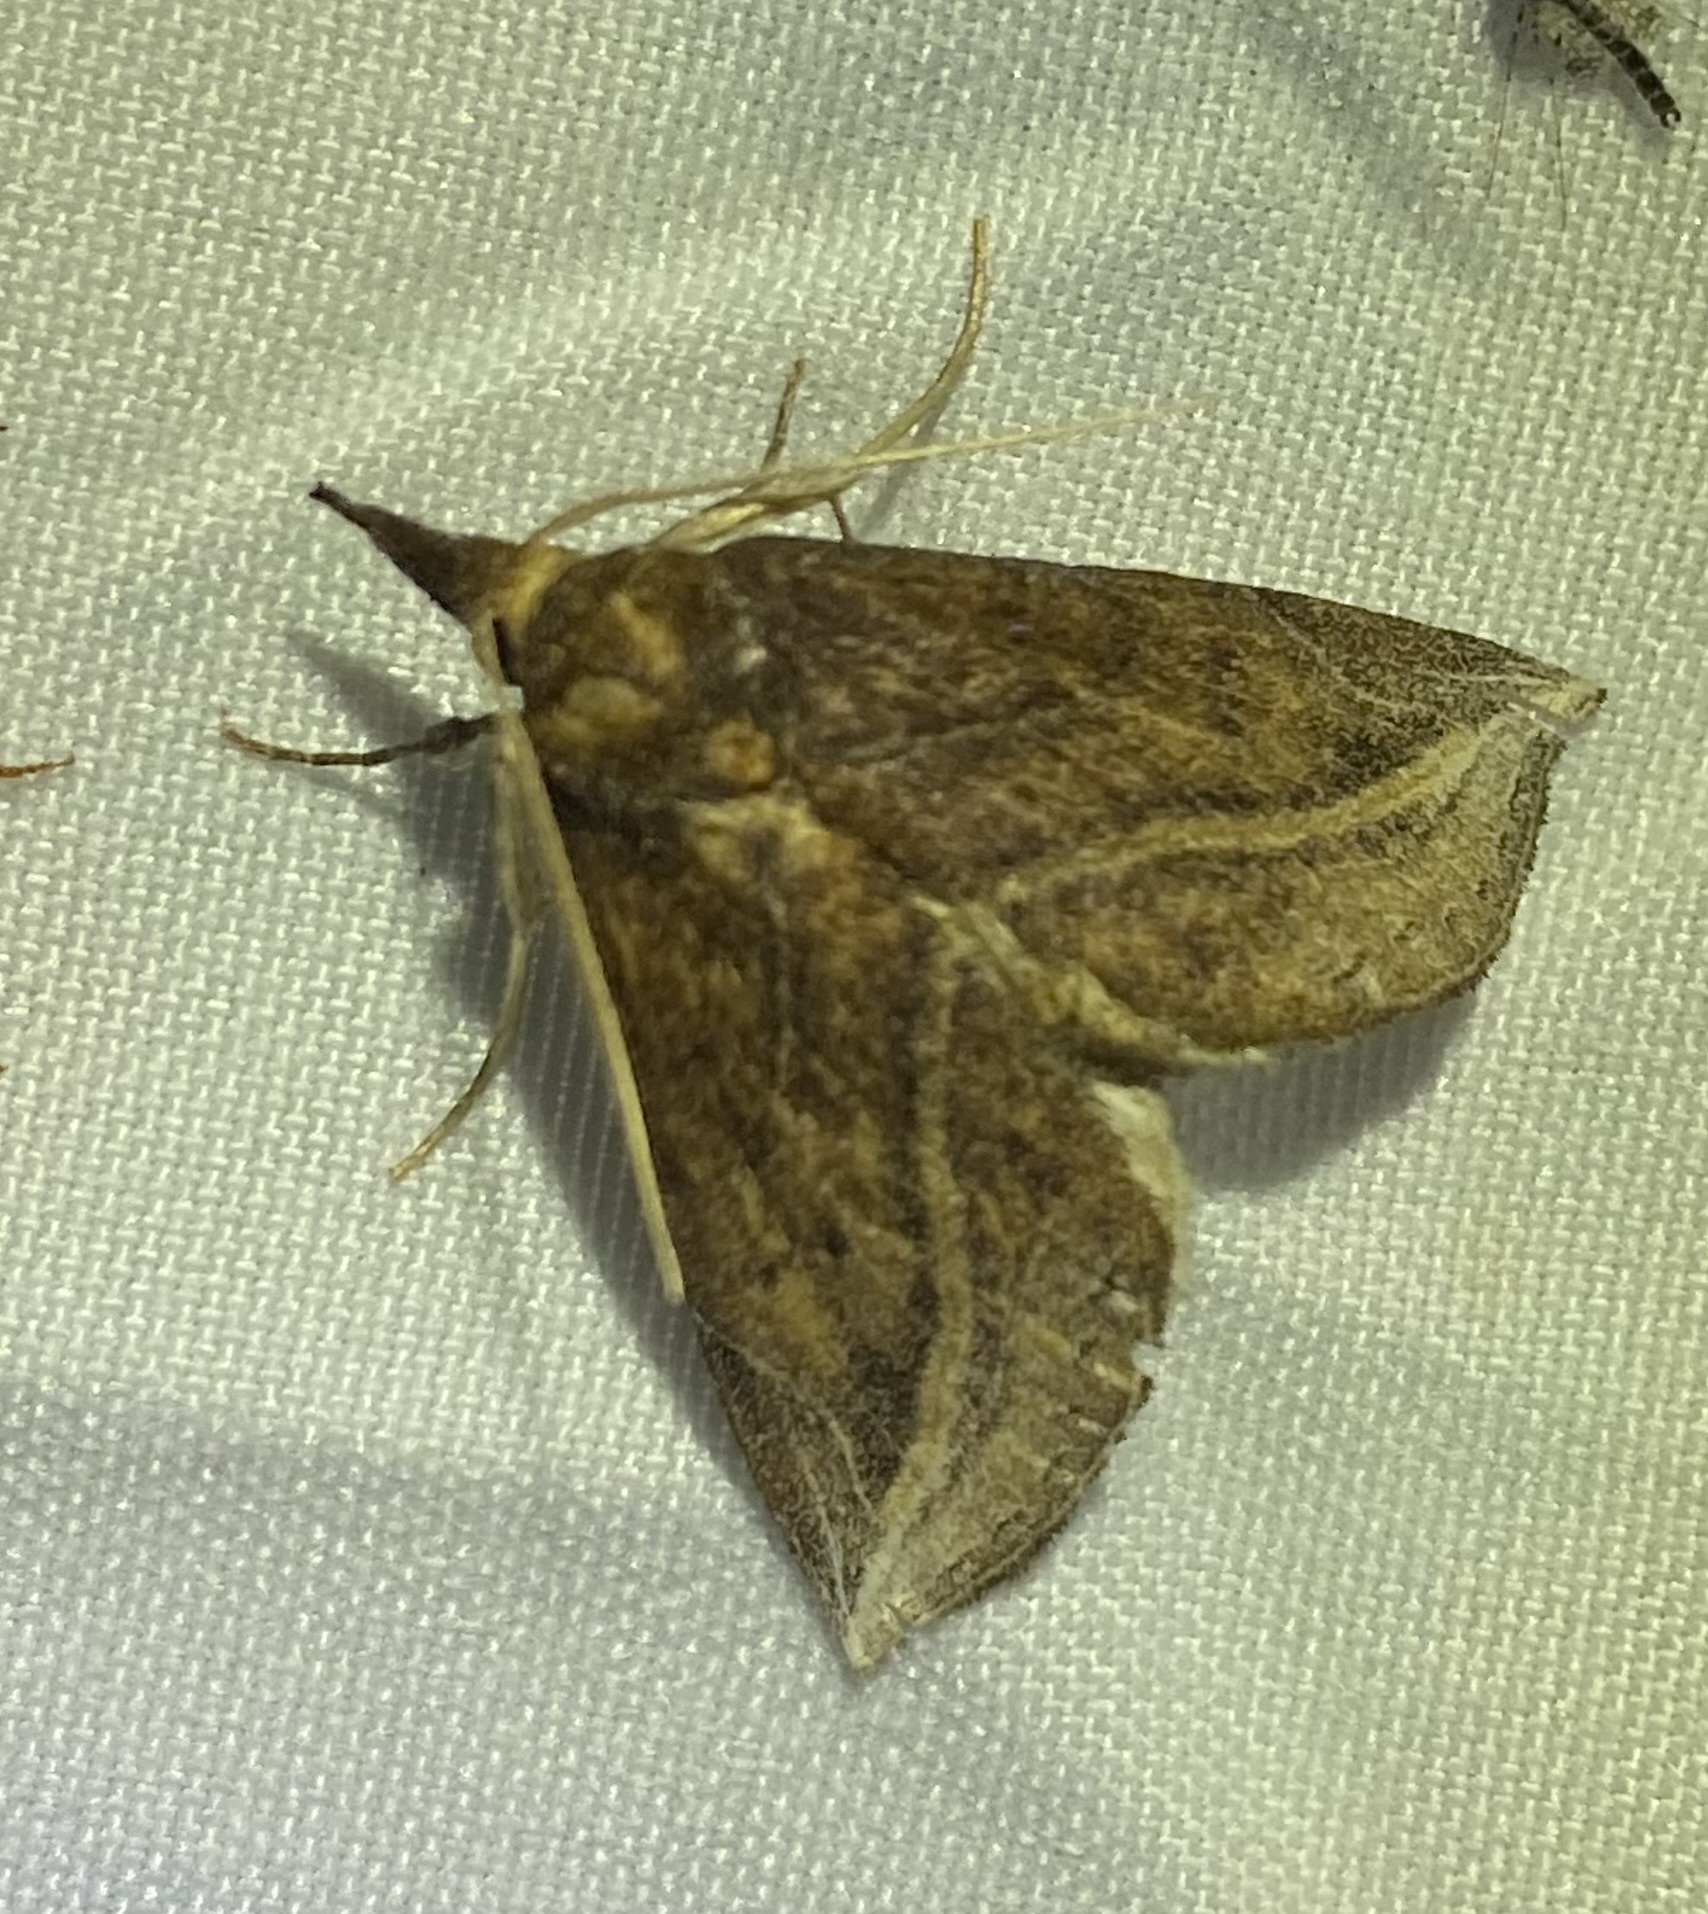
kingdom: Animalia
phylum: Arthropoda
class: Insecta
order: Lepidoptera
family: Erebidae
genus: Phyprosopus
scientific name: Phyprosopus callitrichoides
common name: Curved-lined owlet
